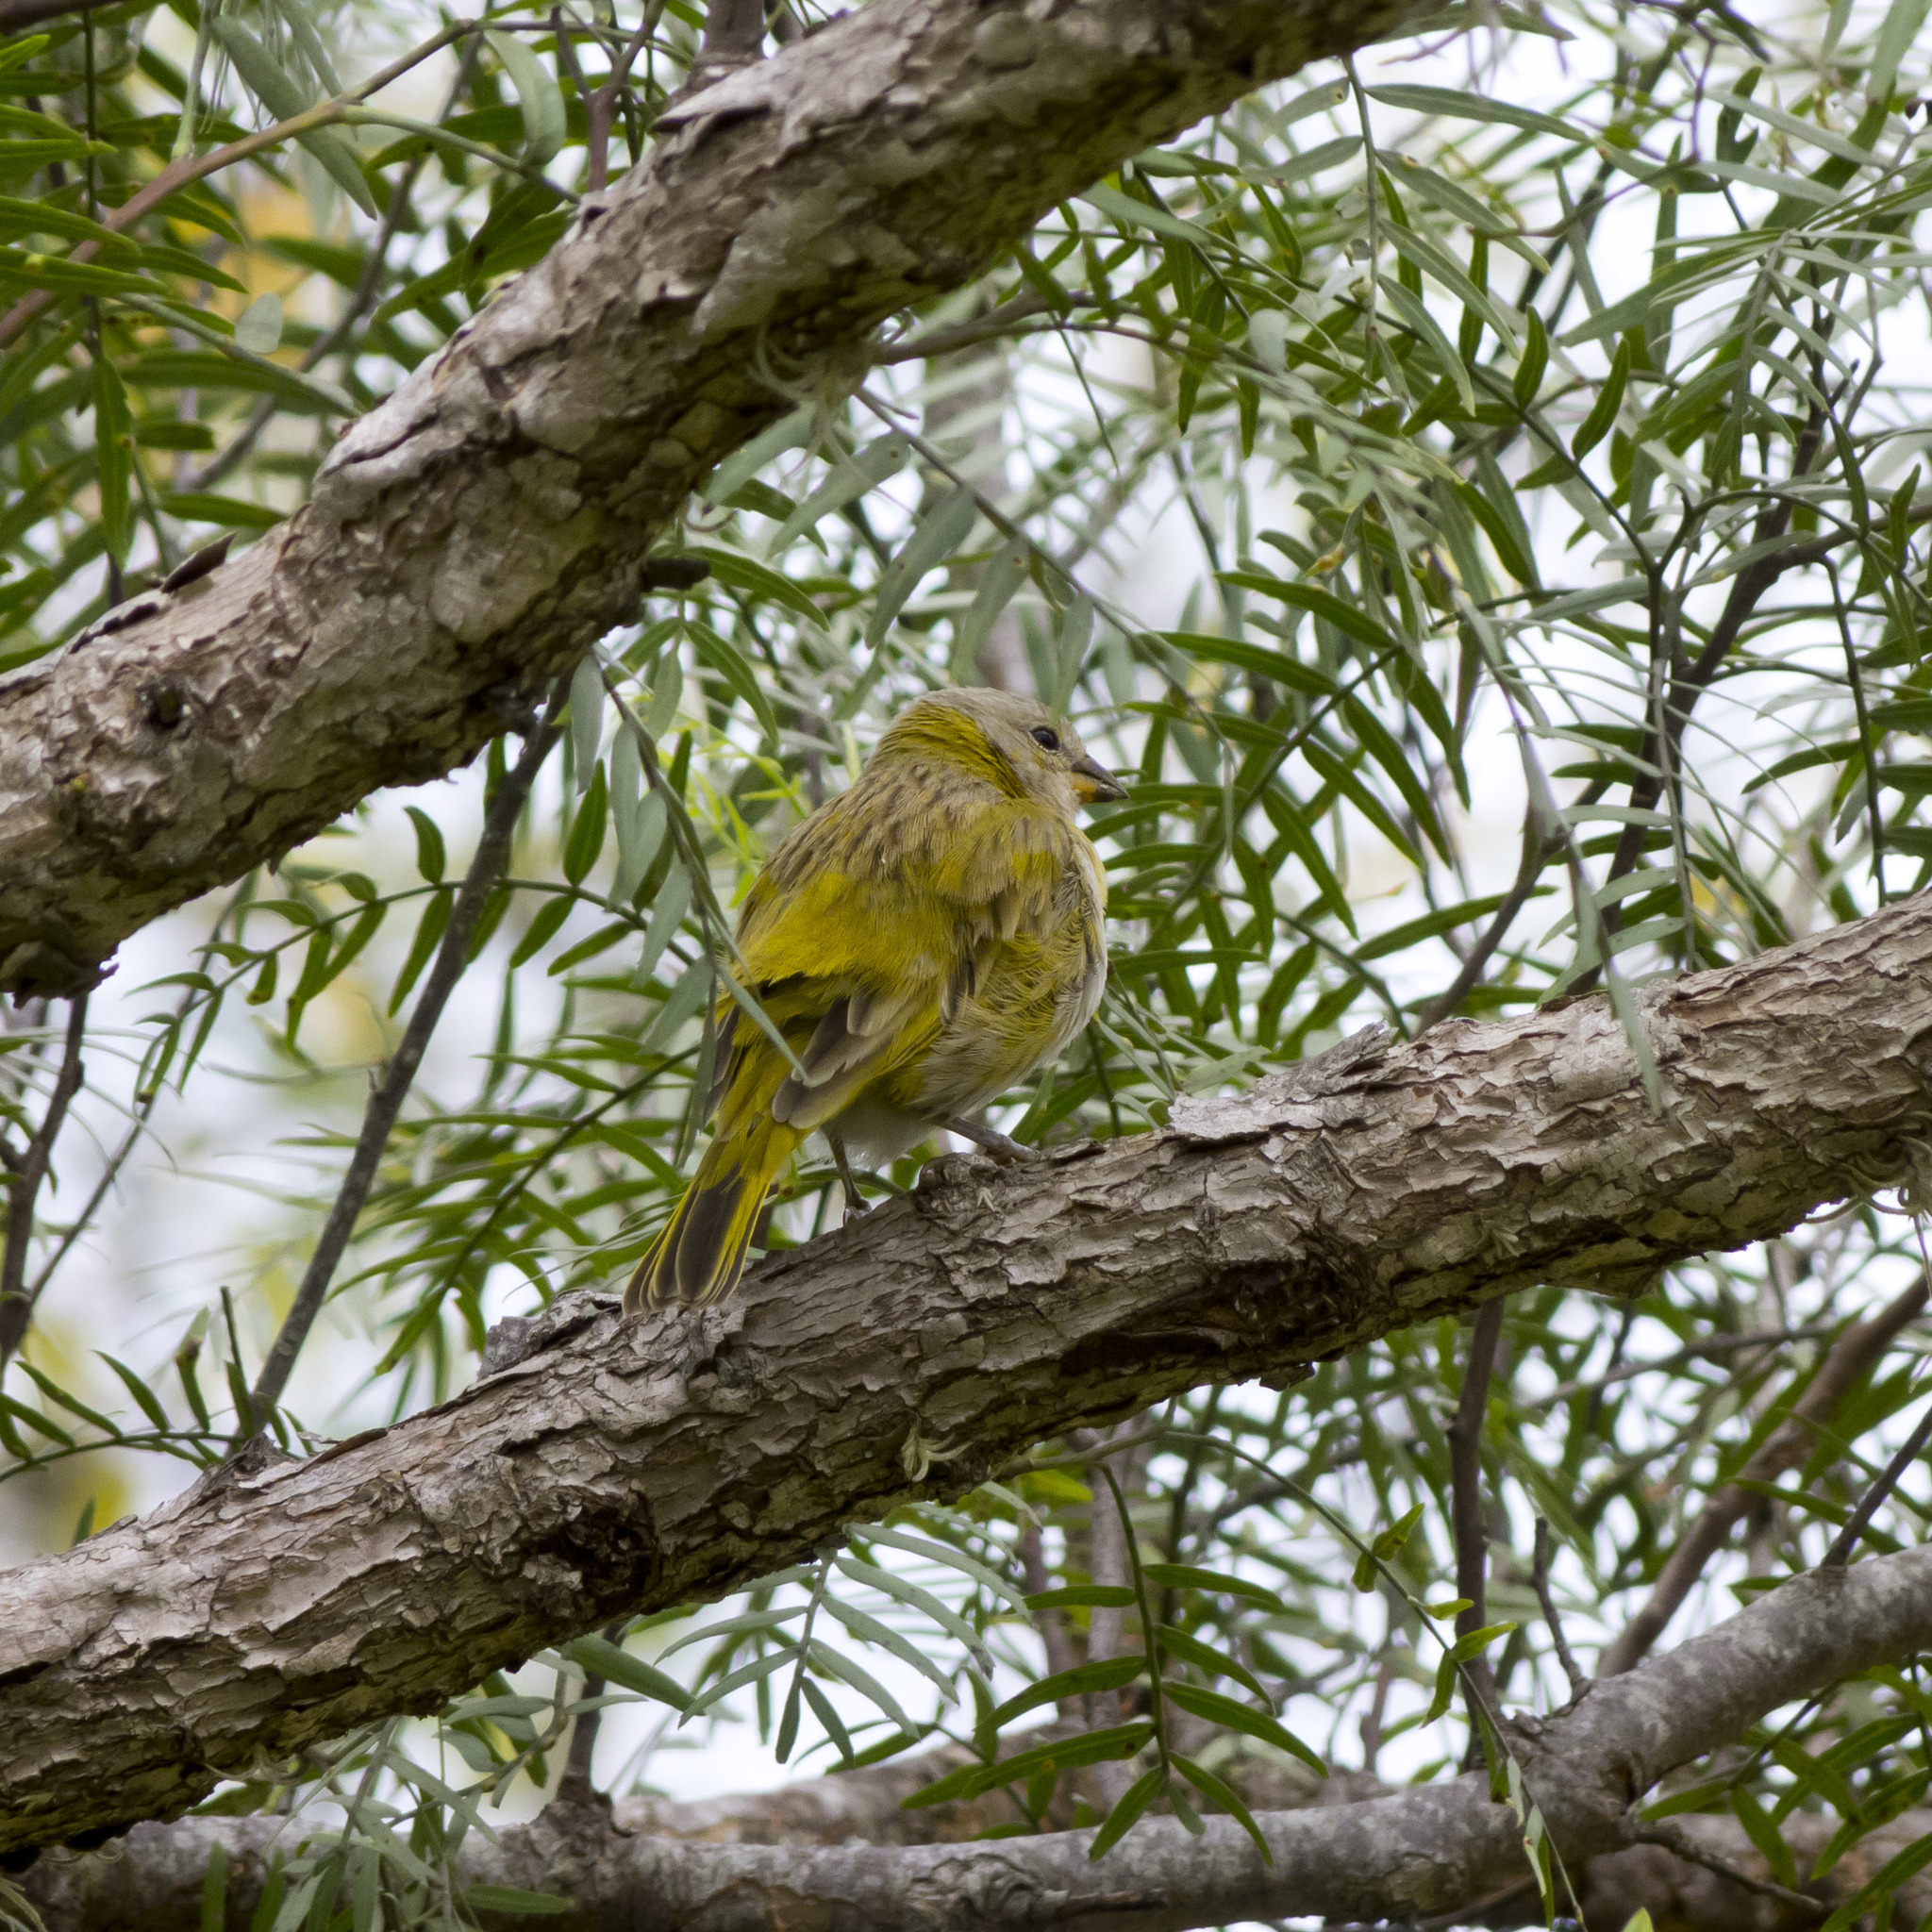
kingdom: Animalia
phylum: Chordata
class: Aves
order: Passeriformes
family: Thraupidae
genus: Sicalis
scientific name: Sicalis flaveola
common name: Saffron finch
